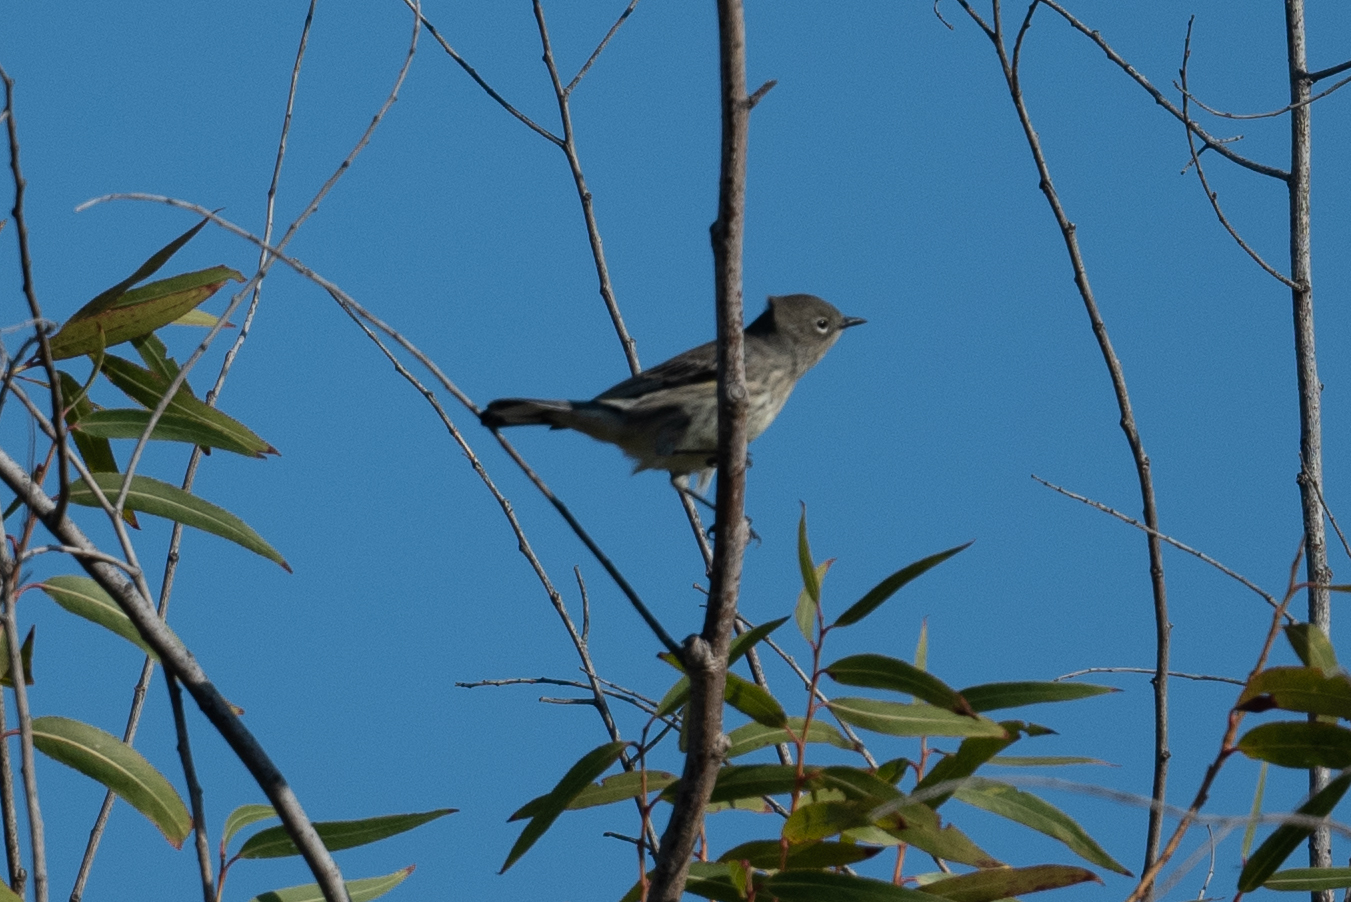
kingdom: Animalia
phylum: Chordata
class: Aves
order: Passeriformes
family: Parulidae
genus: Setophaga
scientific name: Setophaga coronata
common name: Myrtle warbler
